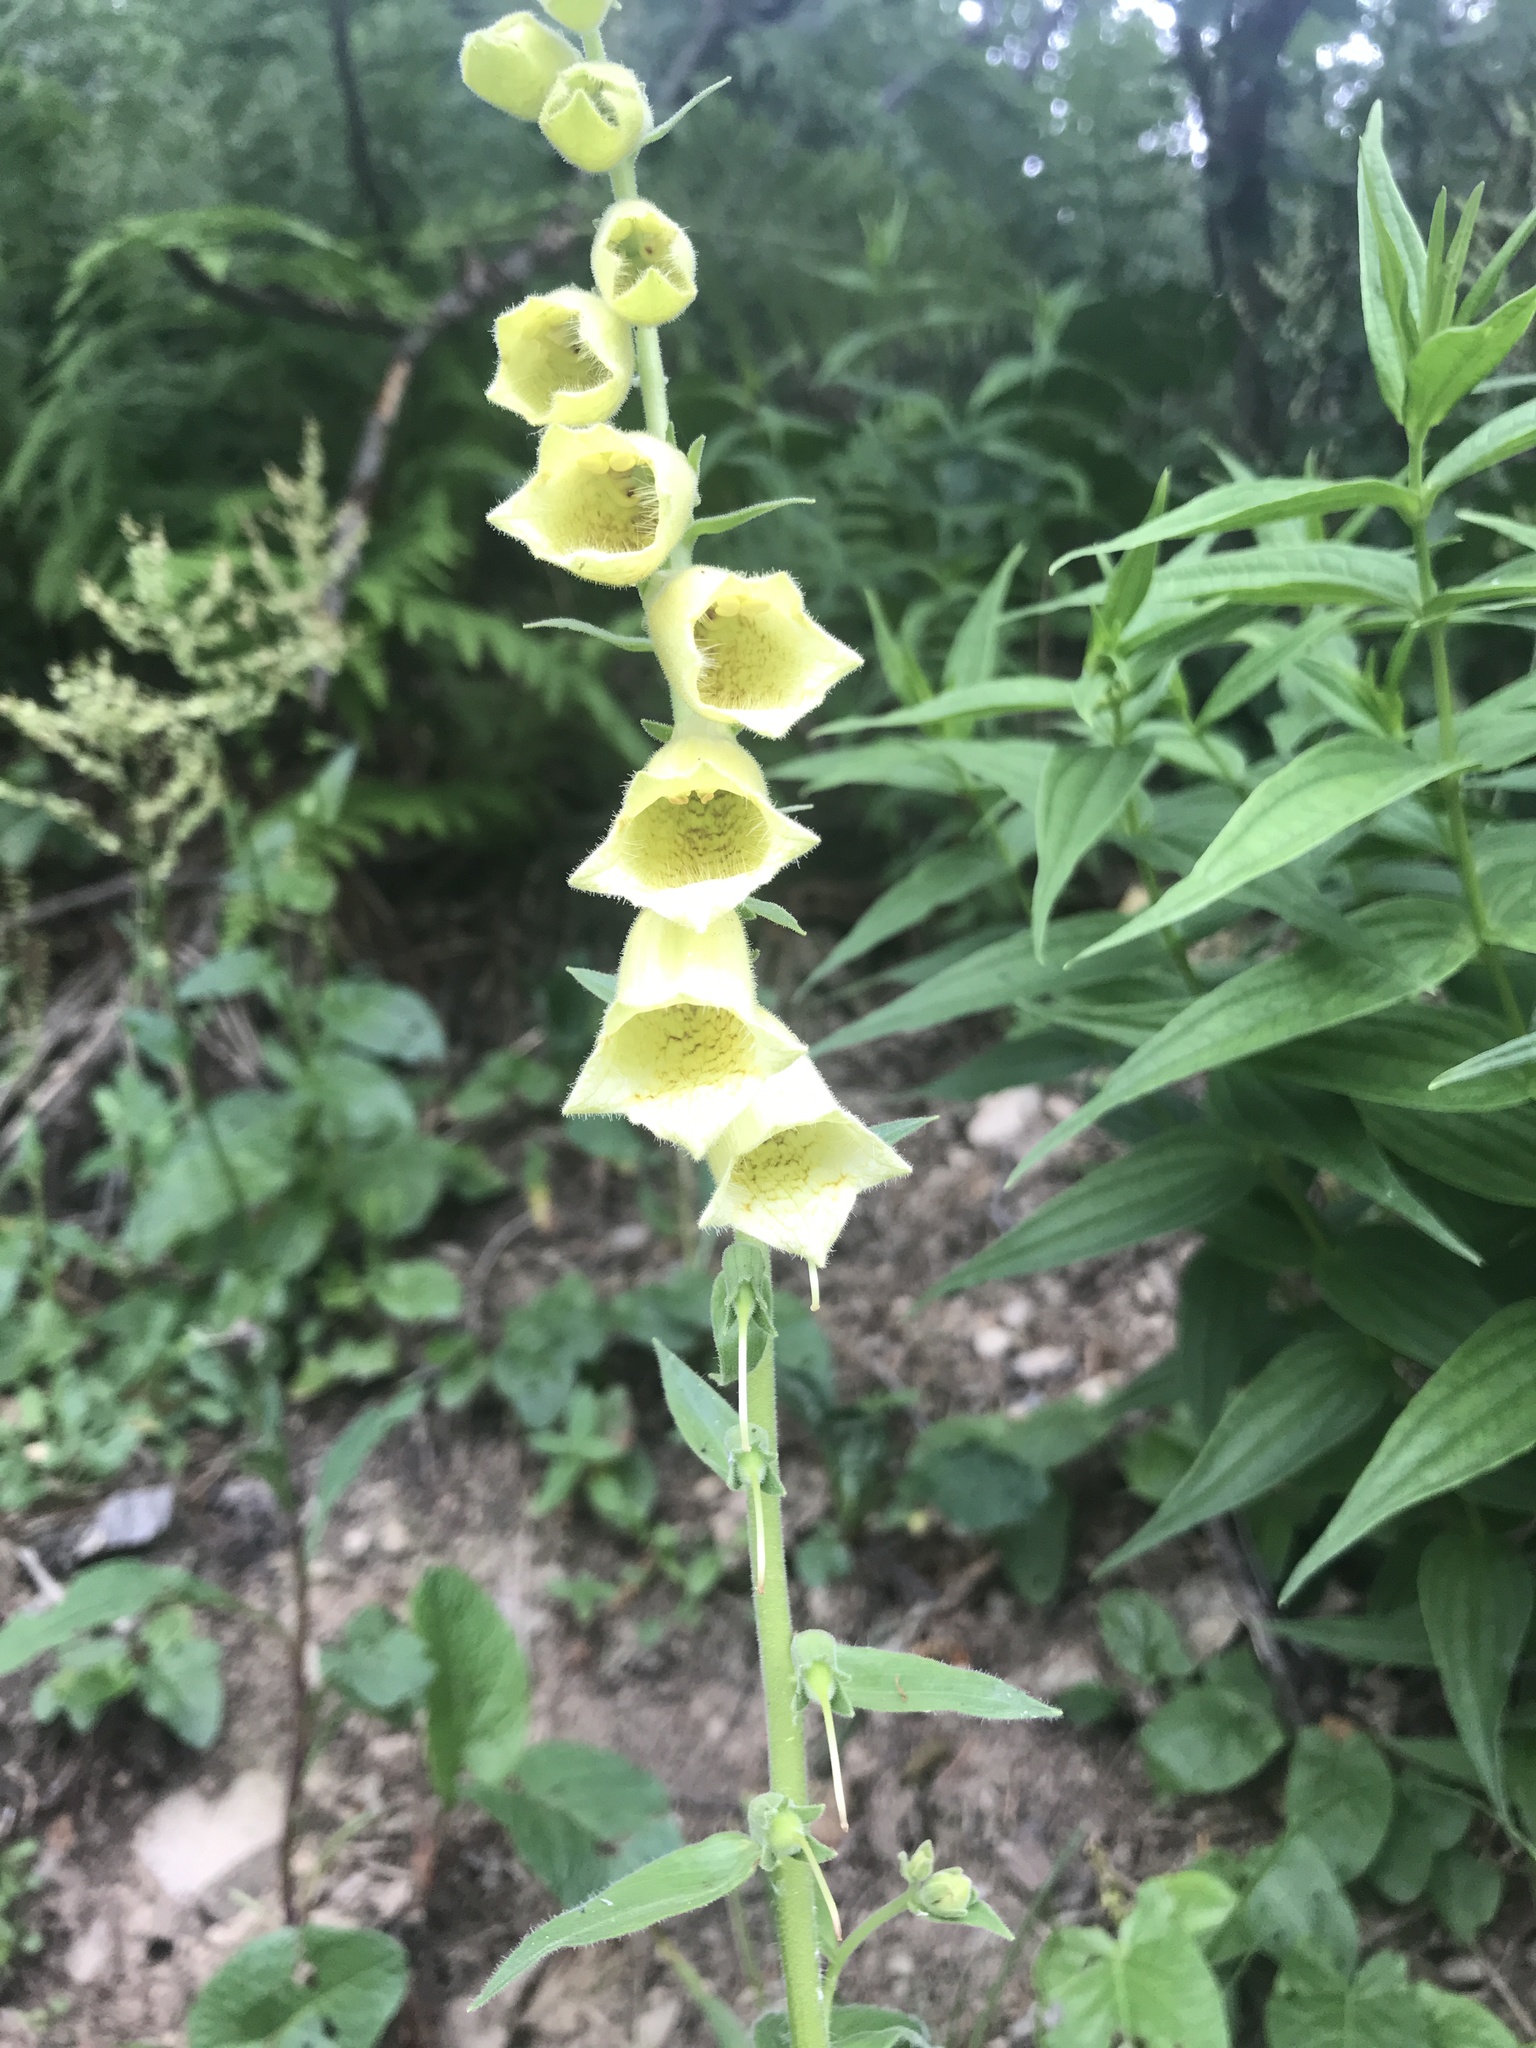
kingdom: Plantae
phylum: Tracheophyta
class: Magnoliopsida
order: Lamiales
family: Plantaginaceae
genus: Digitalis
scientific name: Digitalis grandiflora
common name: Yellow foxglove
